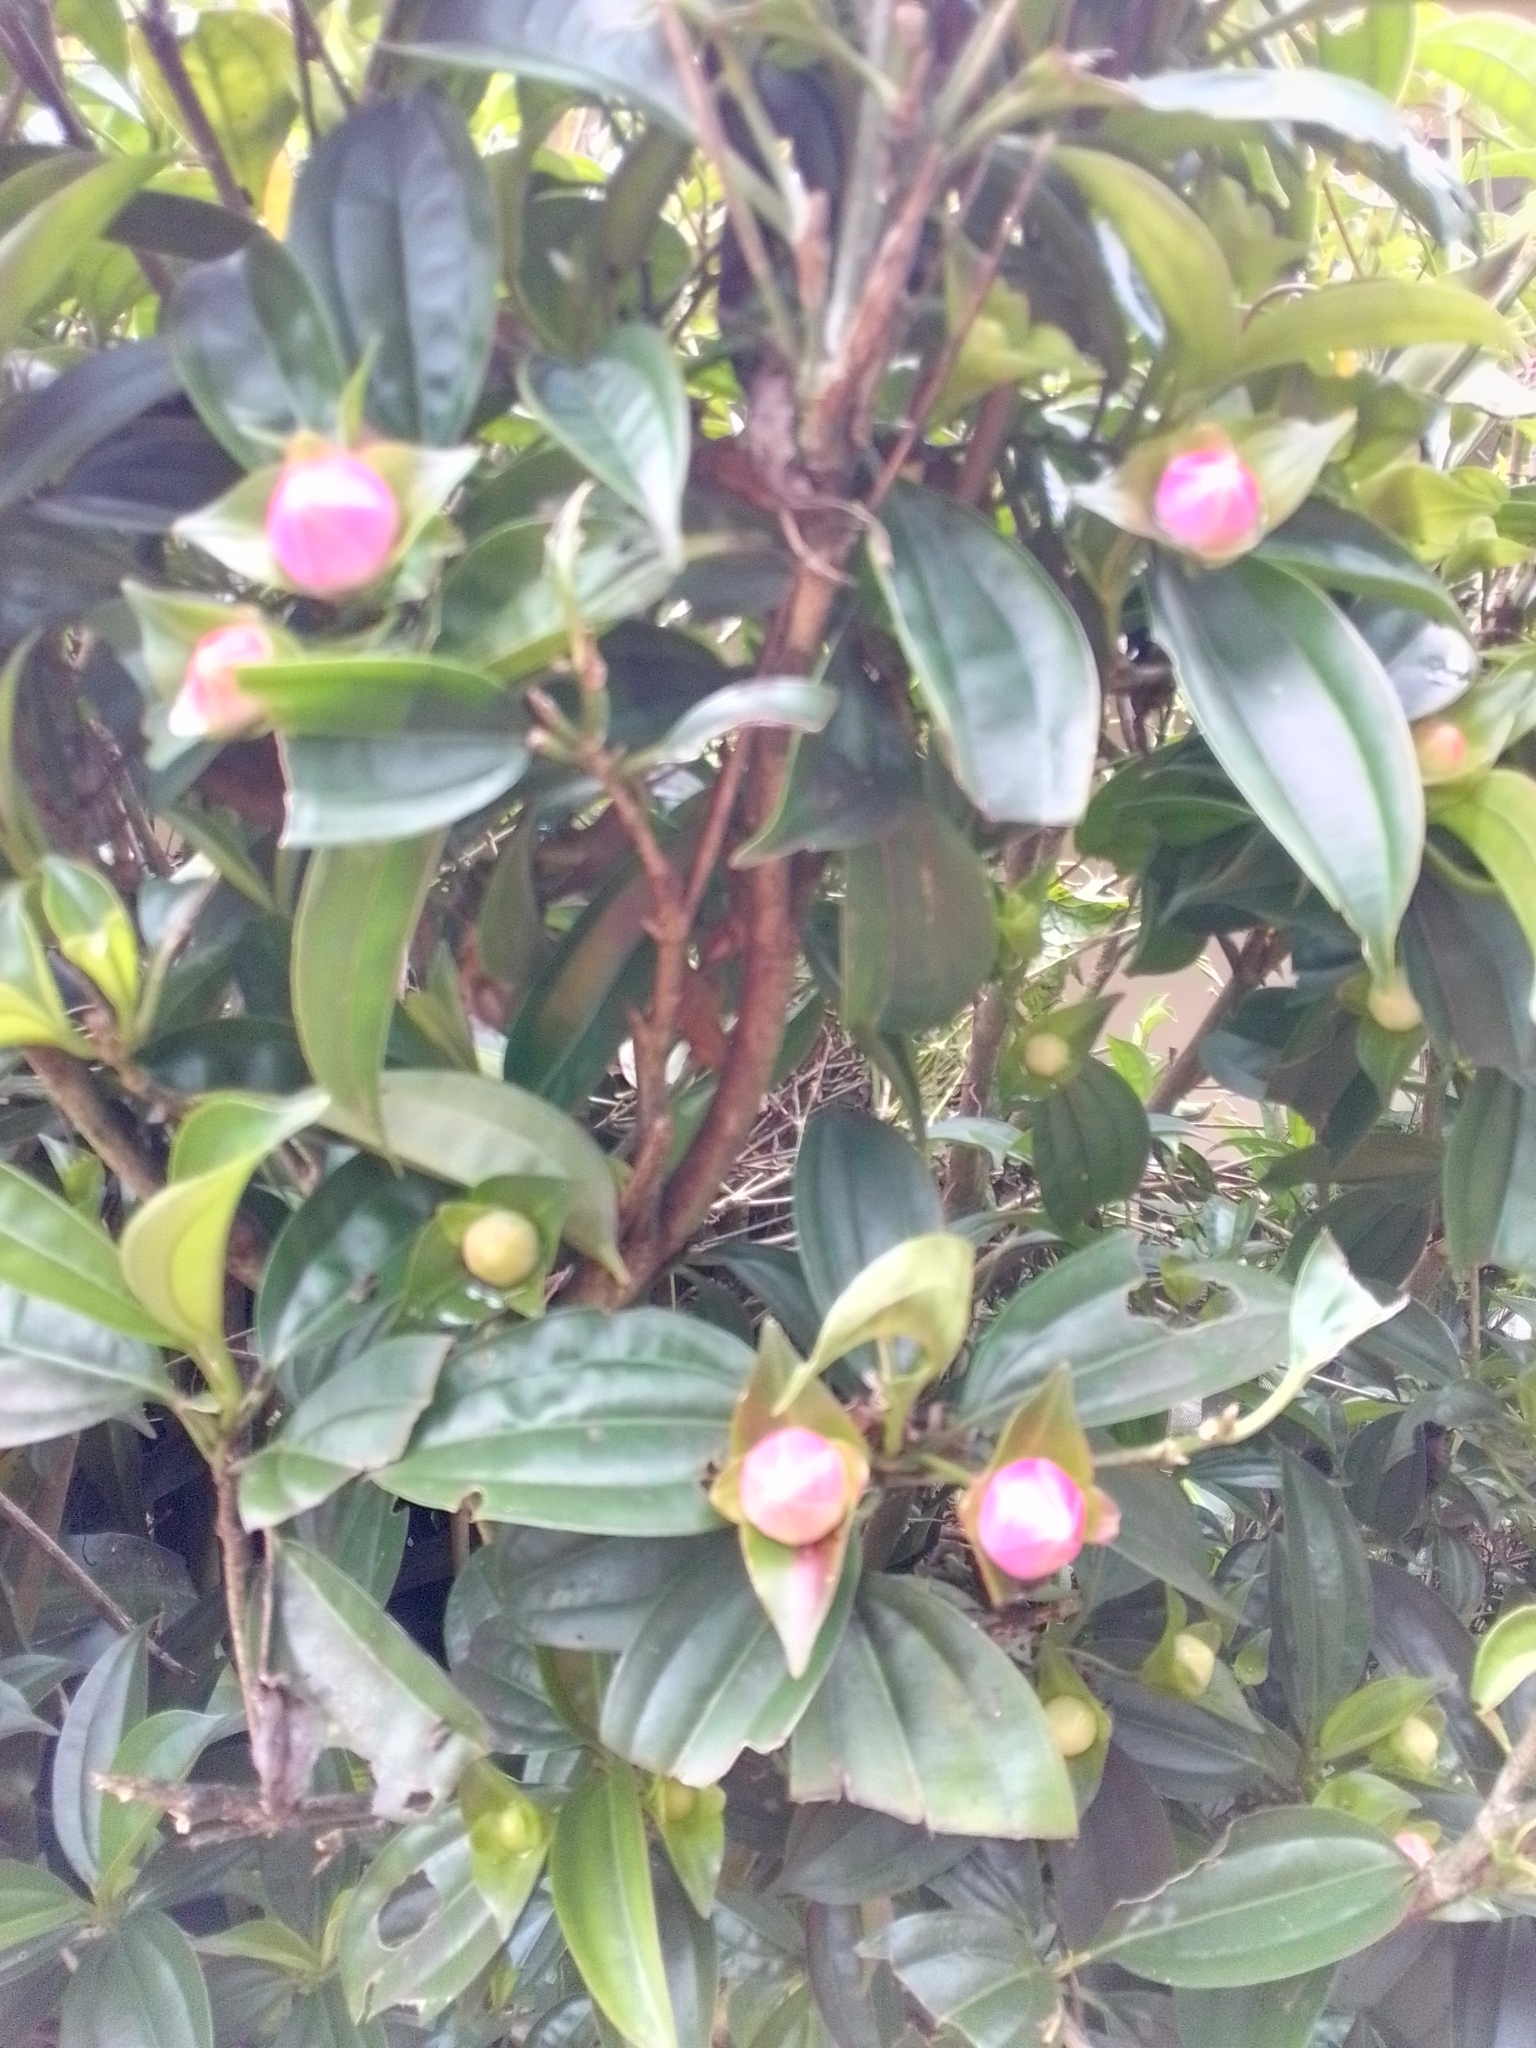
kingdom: Plantae
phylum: Tracheophyta
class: Magnoliopsida
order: Myrtales
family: Melastomataceae
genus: Blakea
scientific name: Blakea gracilis
